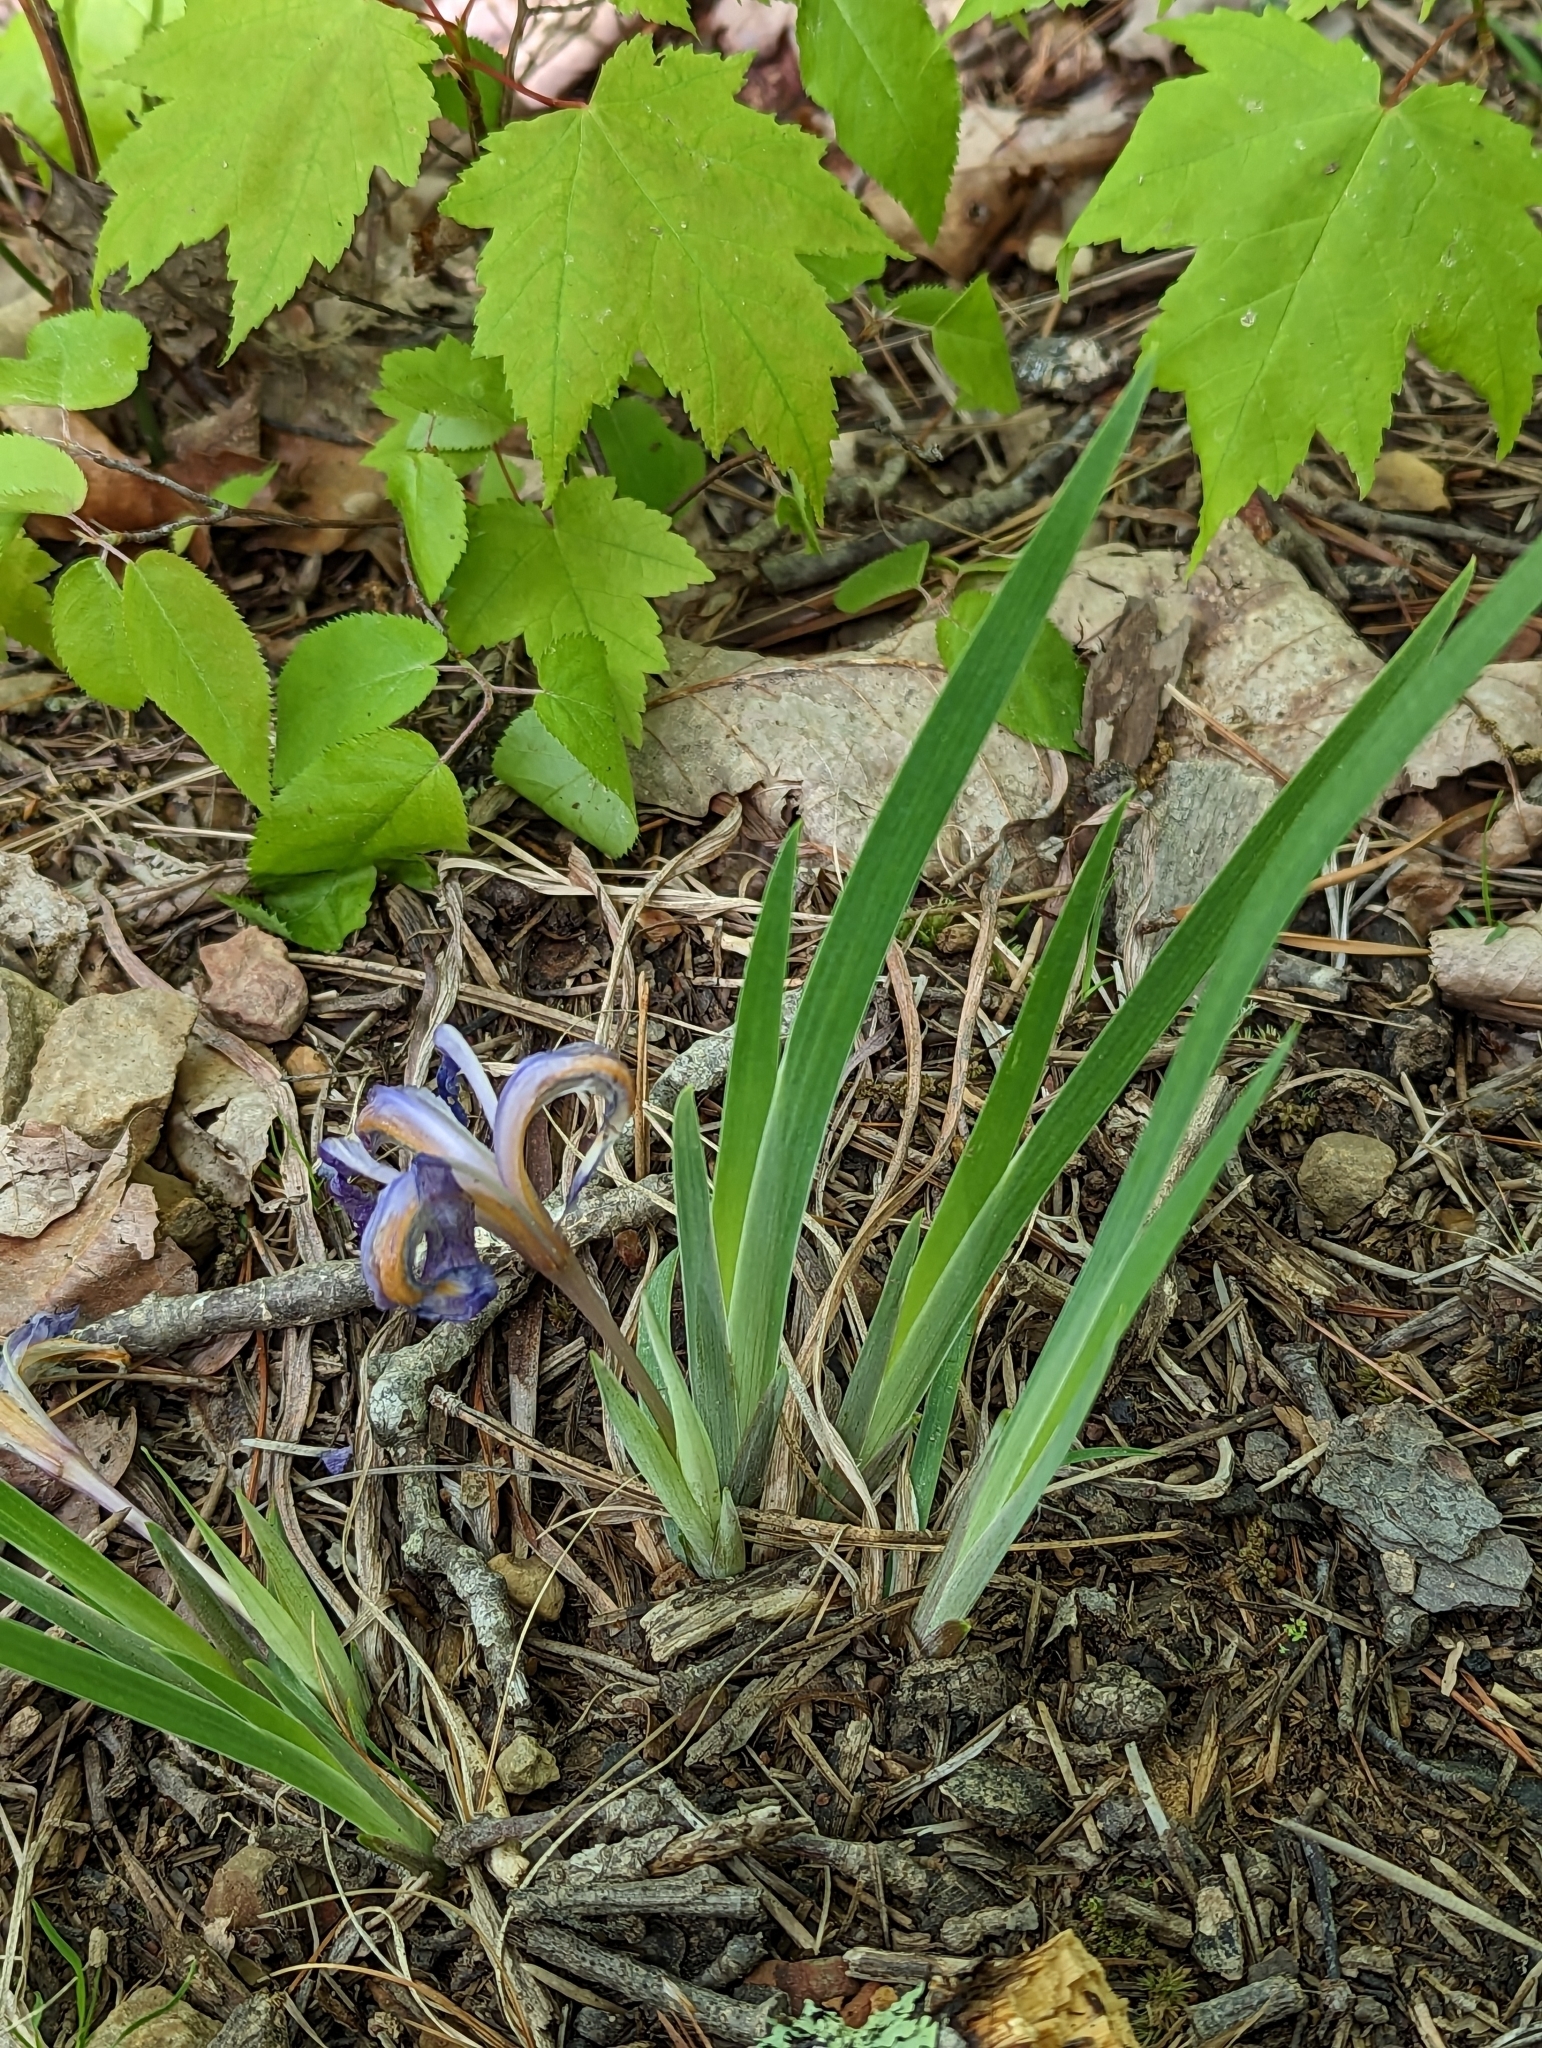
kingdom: Plantae
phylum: Tracheophyta
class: Liliopsida
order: Asparagales
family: Iridaceae
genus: Iris
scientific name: Iris verna
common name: Dwarf iris
